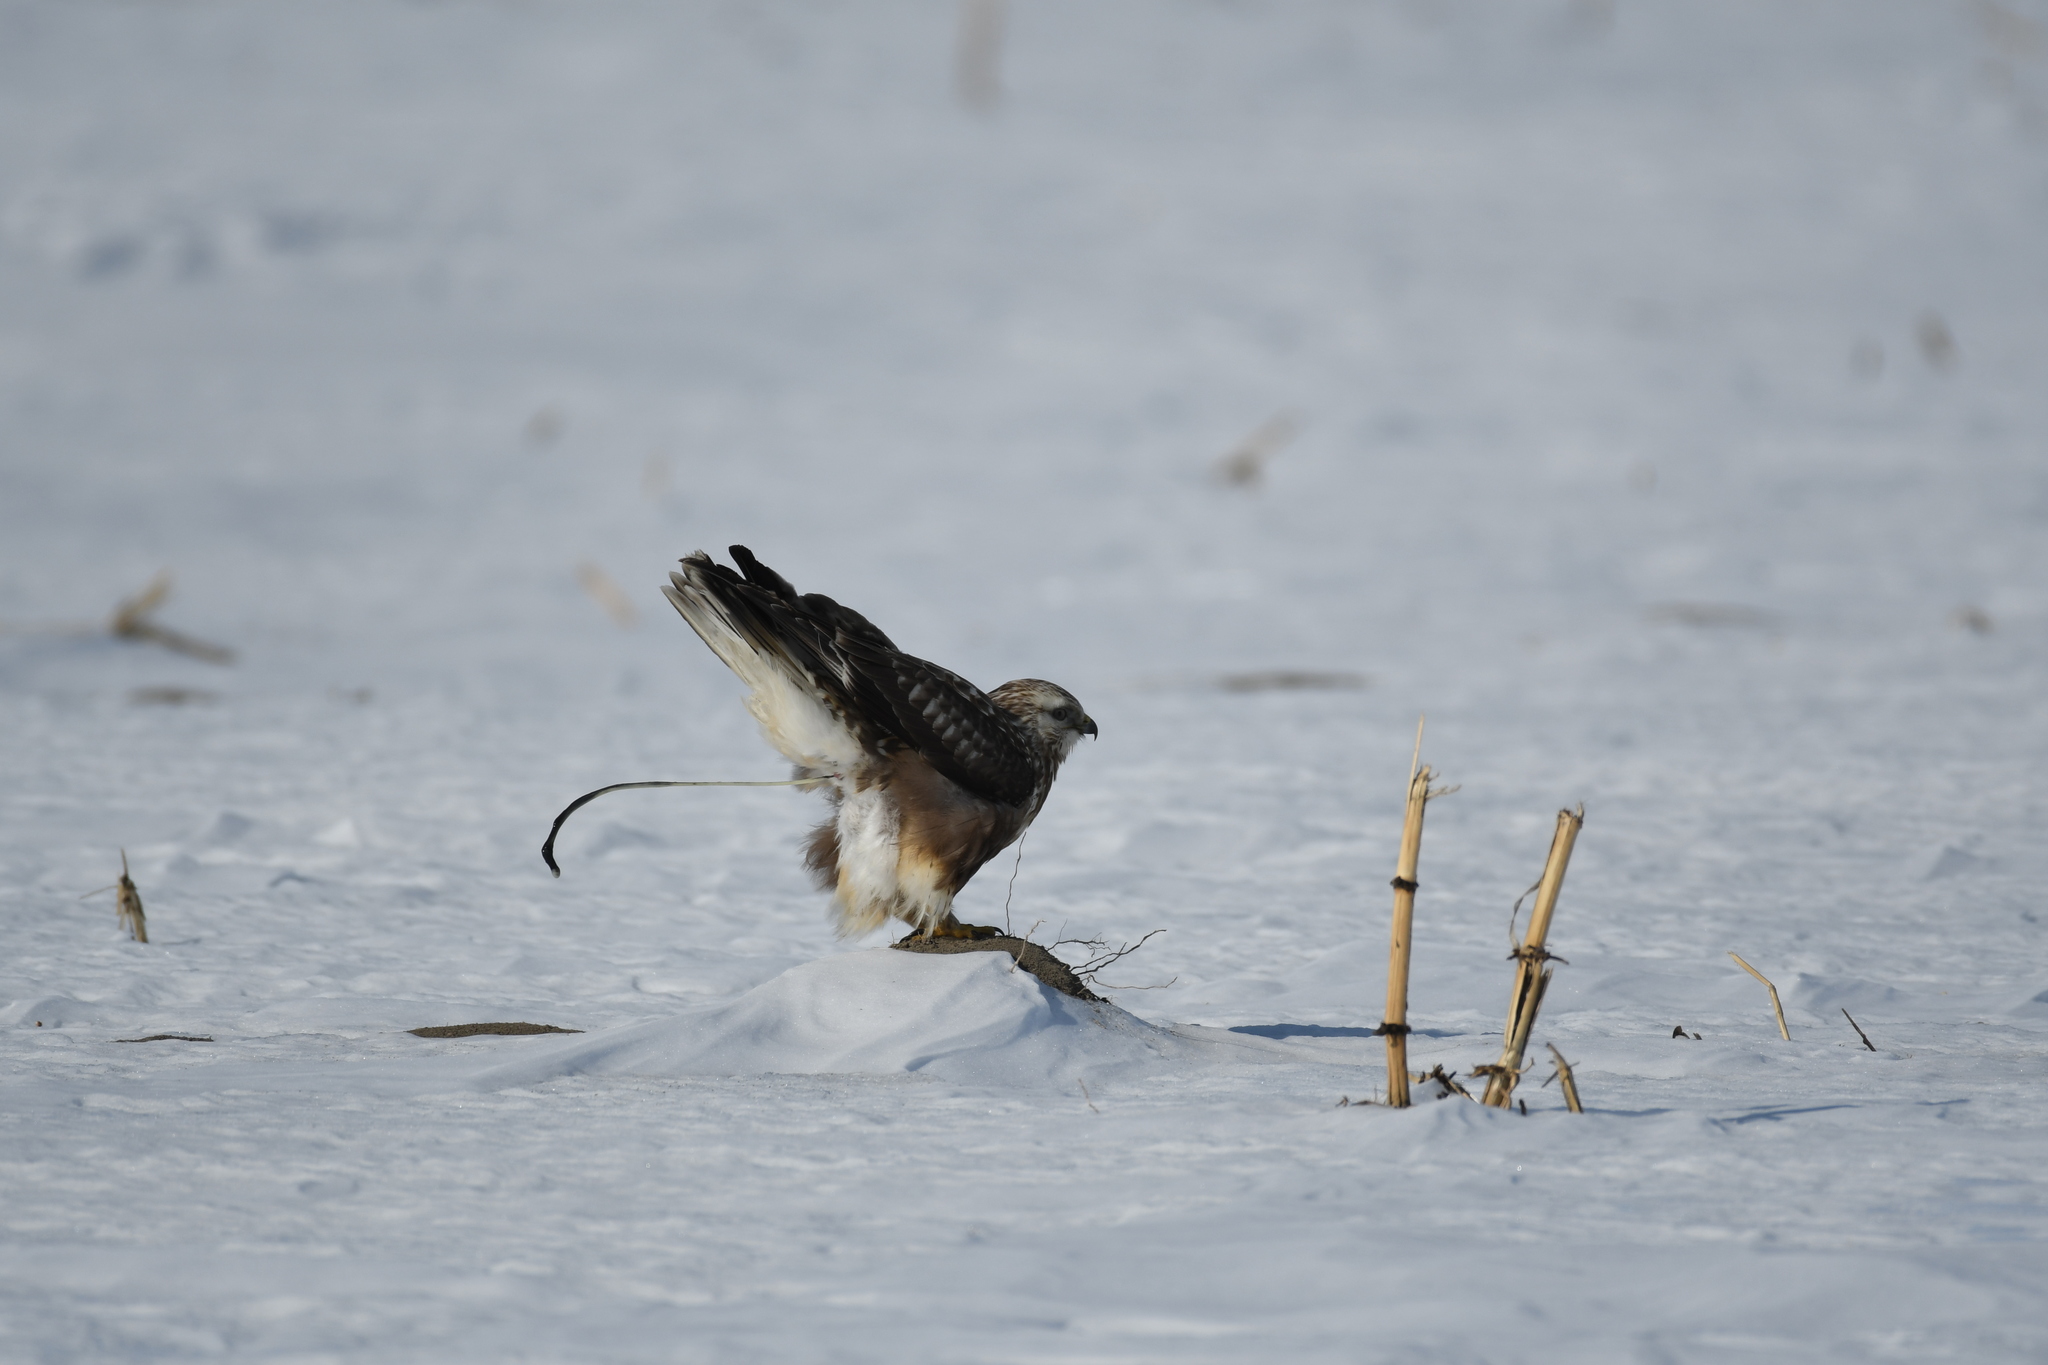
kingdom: Animalia
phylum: Chordata
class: Aves
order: Accipitriformes
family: Accipitridae
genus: Buteo
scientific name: Buteo lagopus
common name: Rough-legged buzzard
